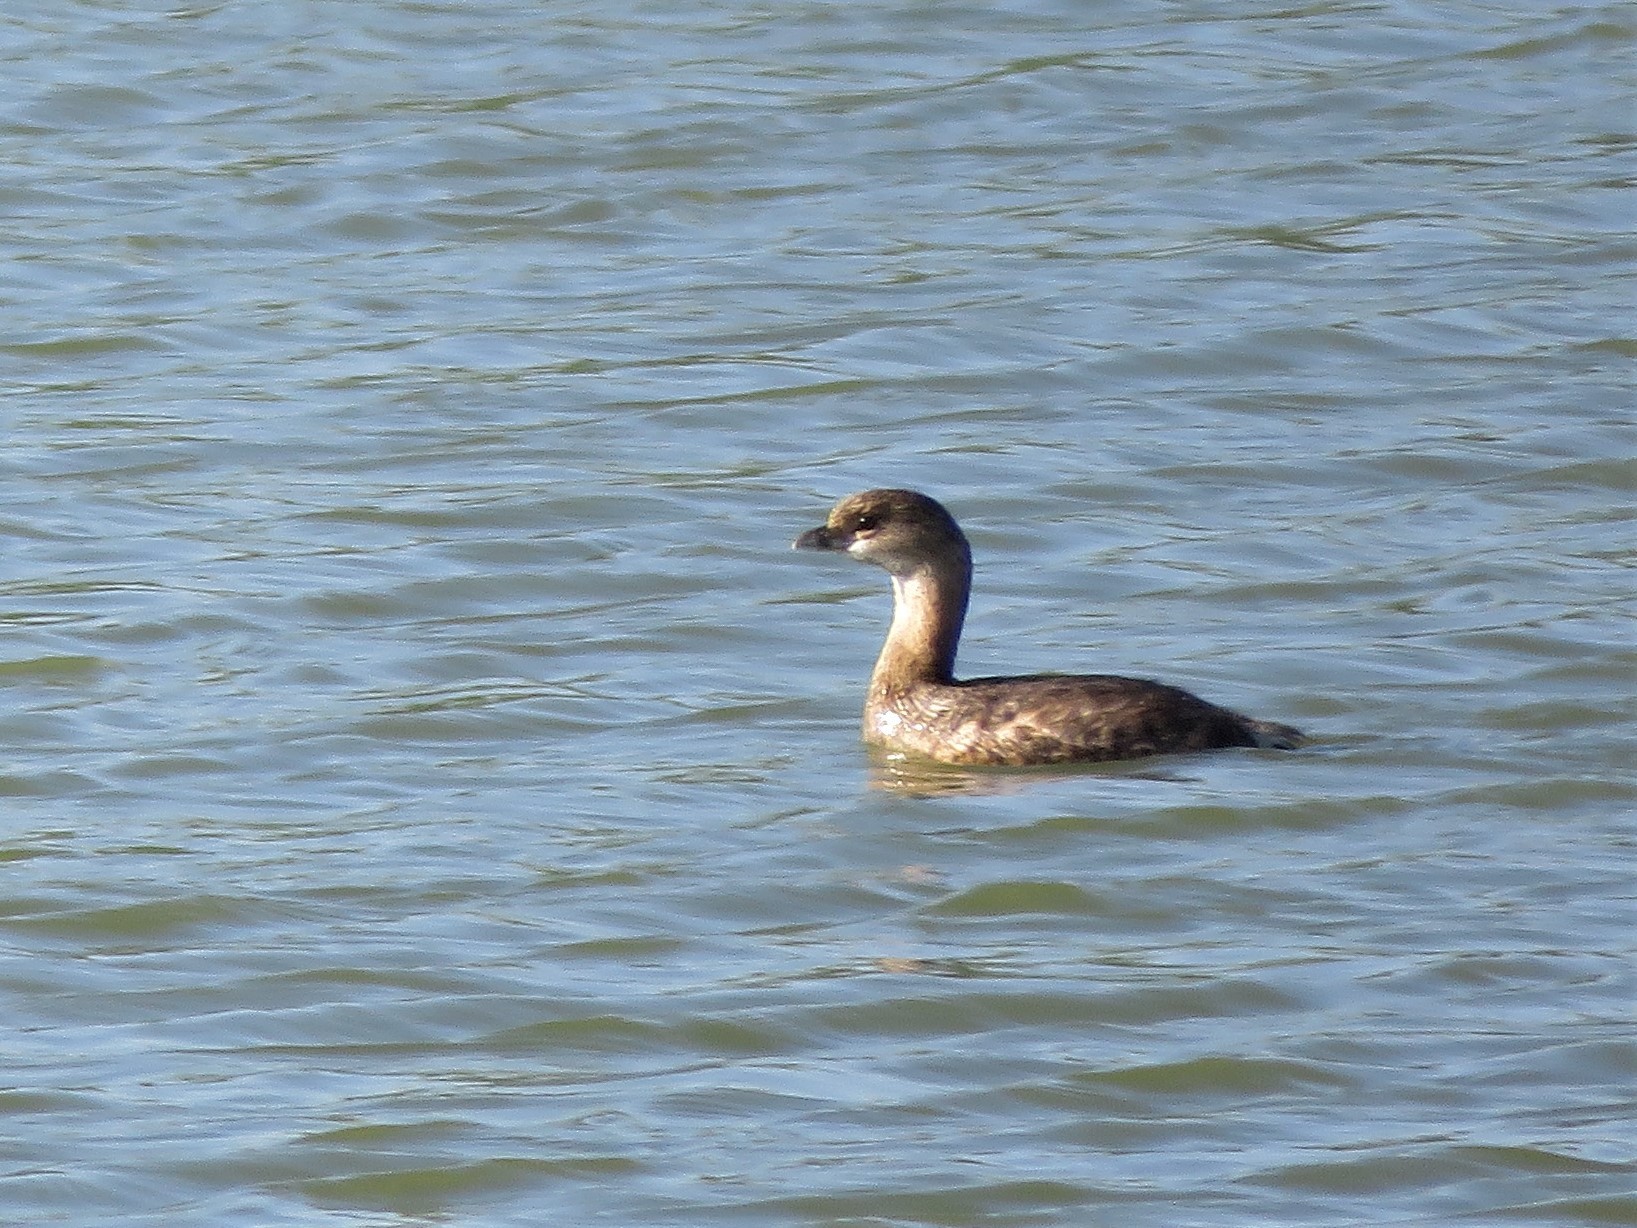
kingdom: Animalia
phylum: Chordata
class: Aves
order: Podicipediformes
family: Podicipedidae
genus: Podilymbus
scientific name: Podilymbus podiceps
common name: Pied-billed grebe
